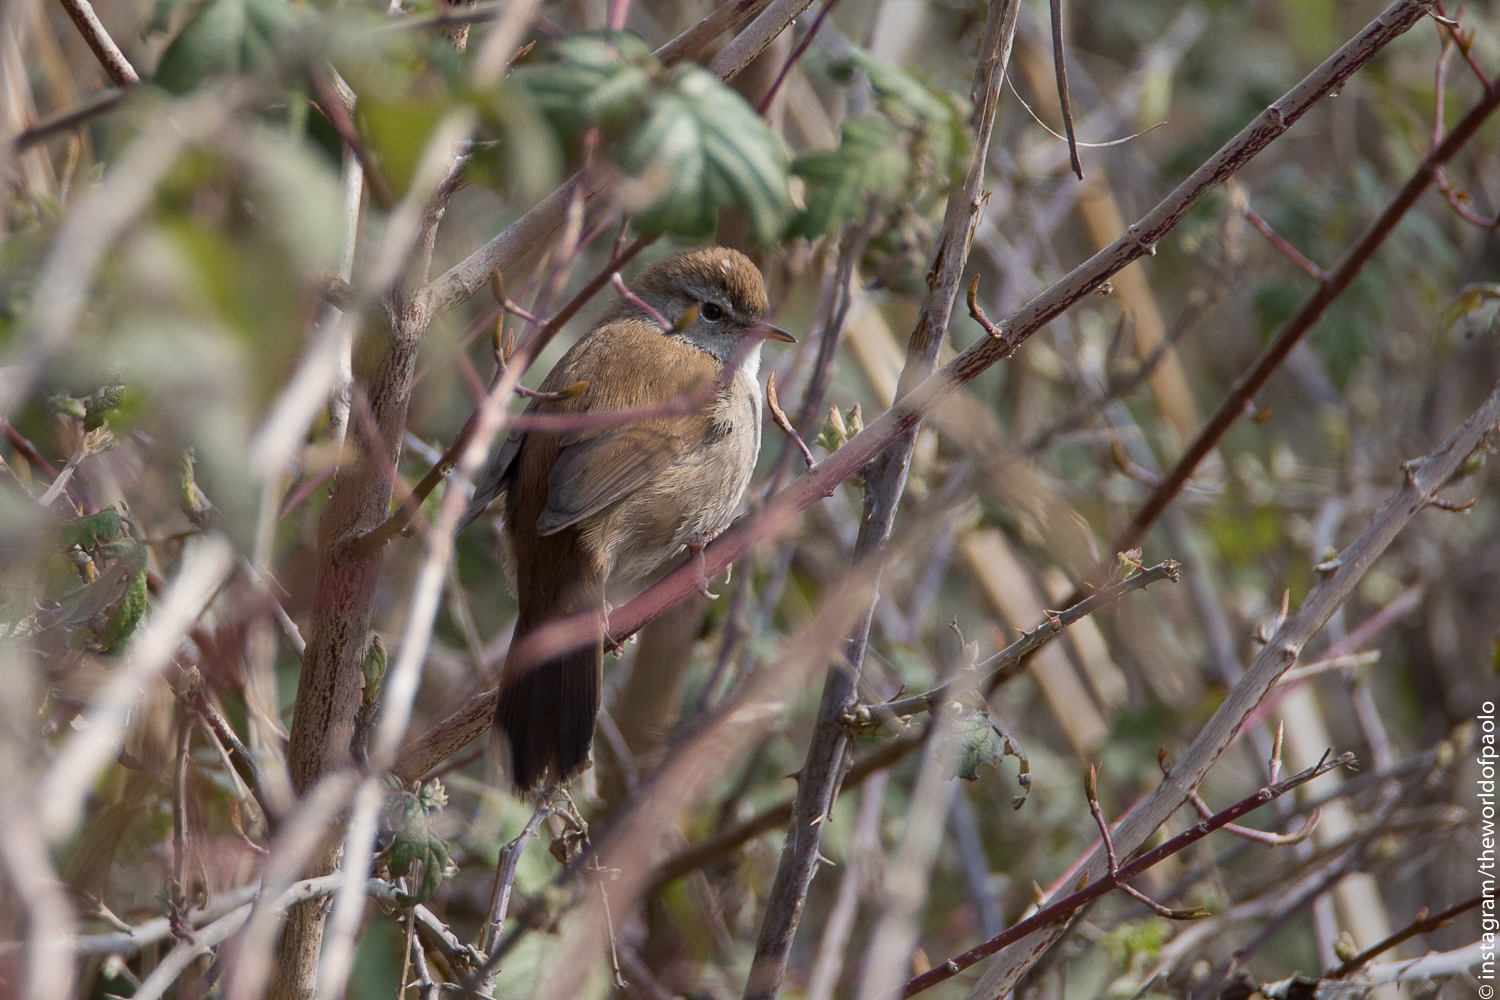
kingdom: Animalia
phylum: Chordata
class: Aves
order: Passeriformes
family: Cettiidae
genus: Cettia
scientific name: Cettia cetti
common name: Cetti's warbler
